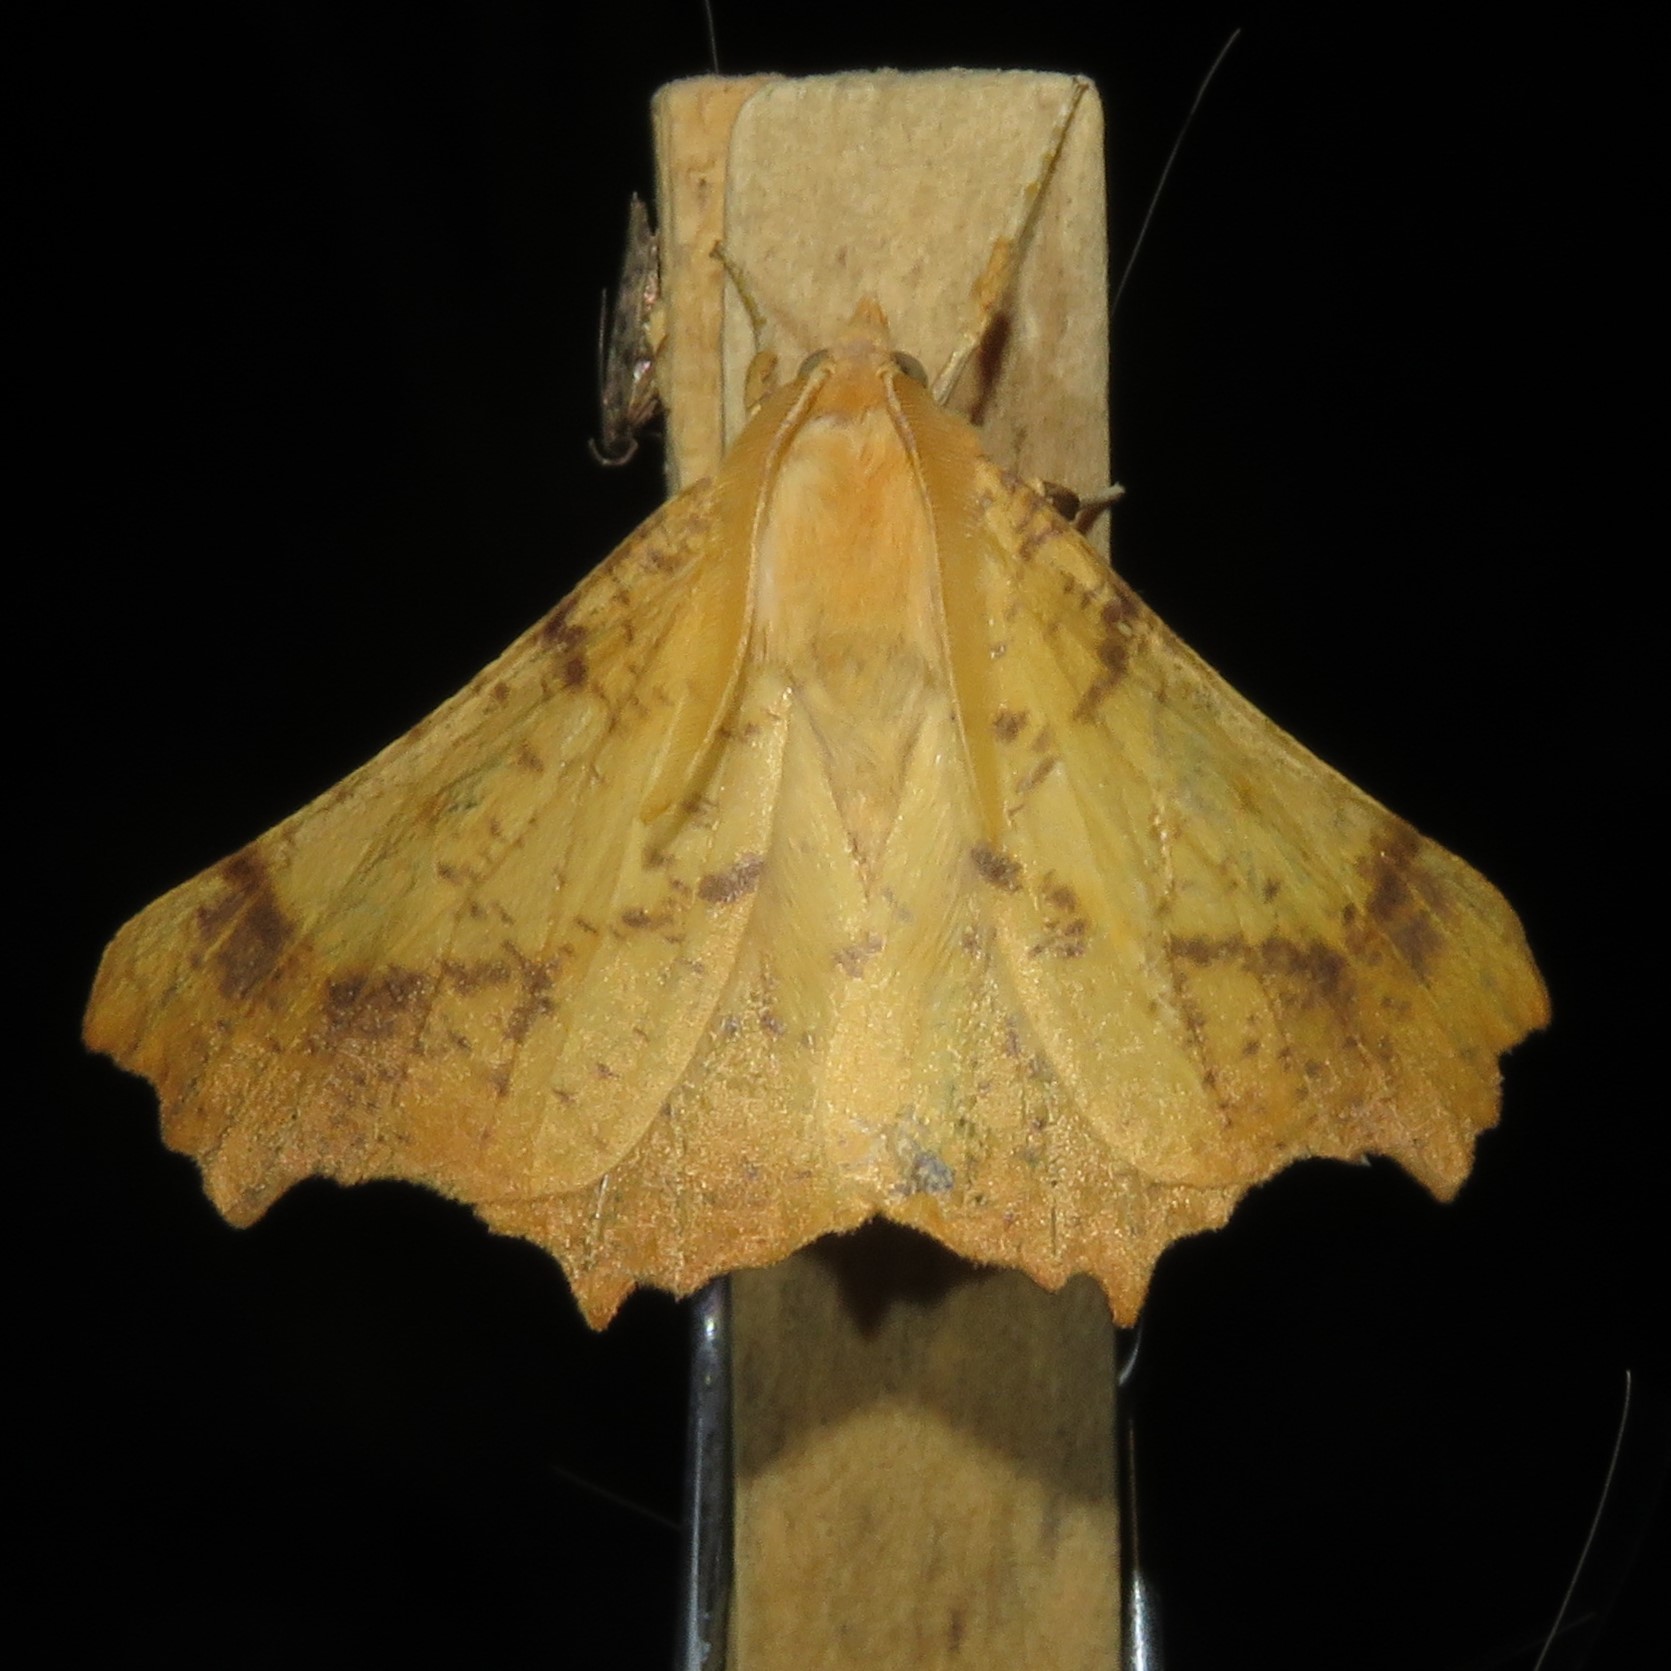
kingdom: Animalia
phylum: Arthropoda
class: Insecta
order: Lepidoptera
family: Geometridae
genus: Ennomos
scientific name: Ennomos magnaria
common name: Maple spanworm
